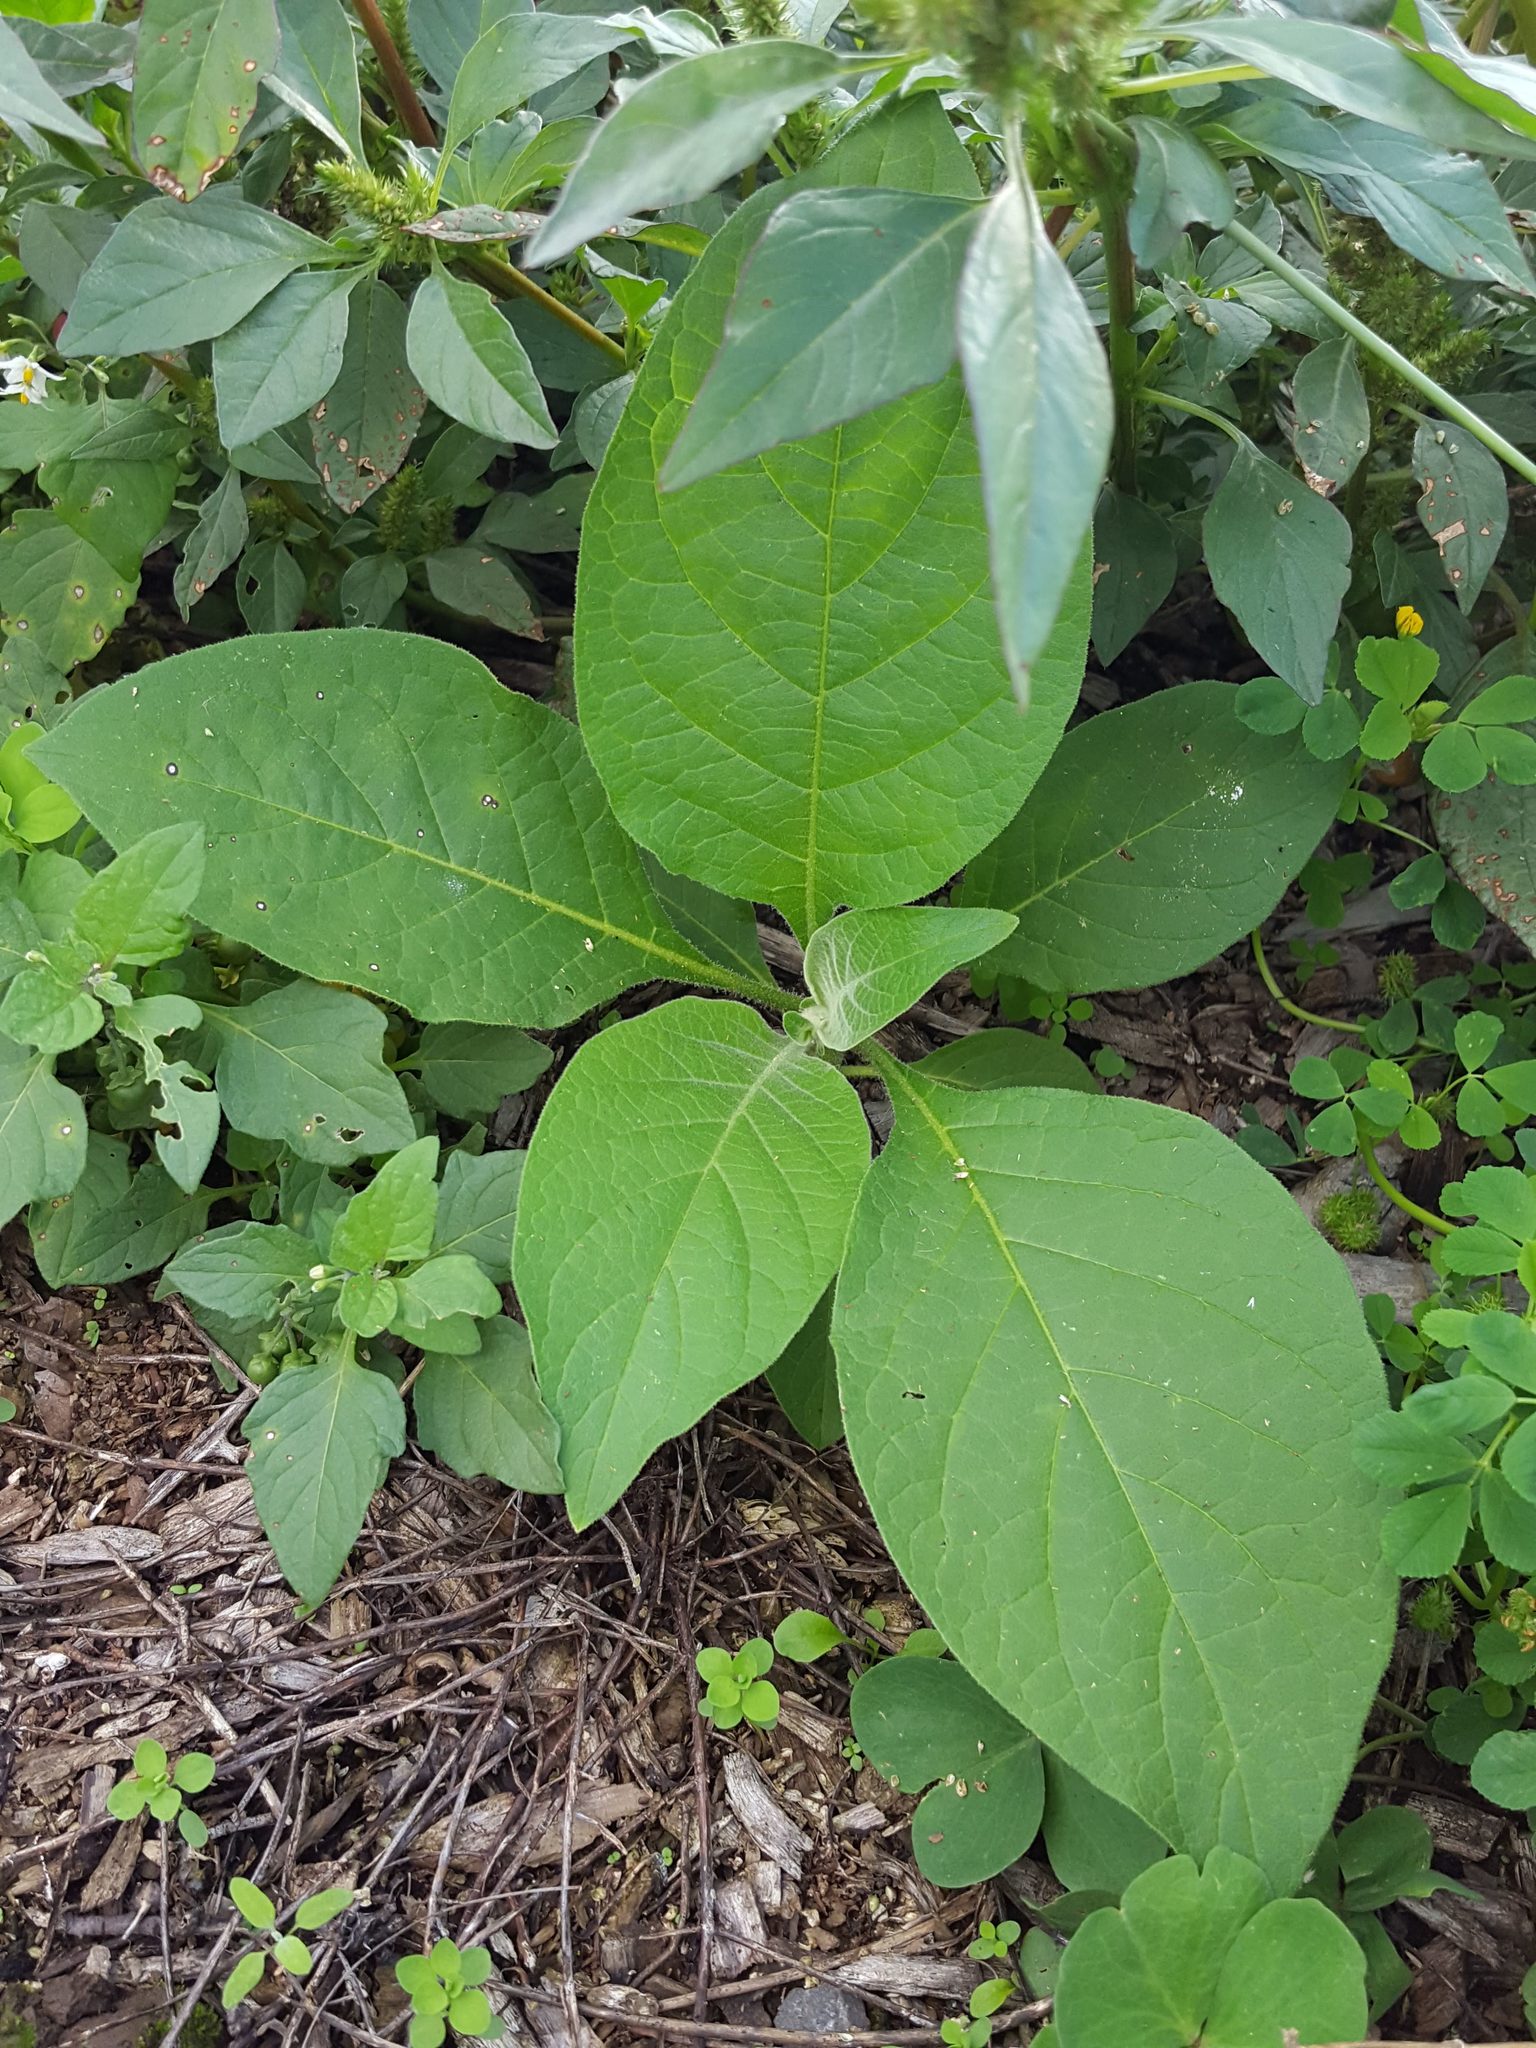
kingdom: Plantae
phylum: Tracheophyta
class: Magnoliopsida
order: Solanales
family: Solanaceae
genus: Solanum
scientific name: Solanum mauritianum
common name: Earleaf nightshade
